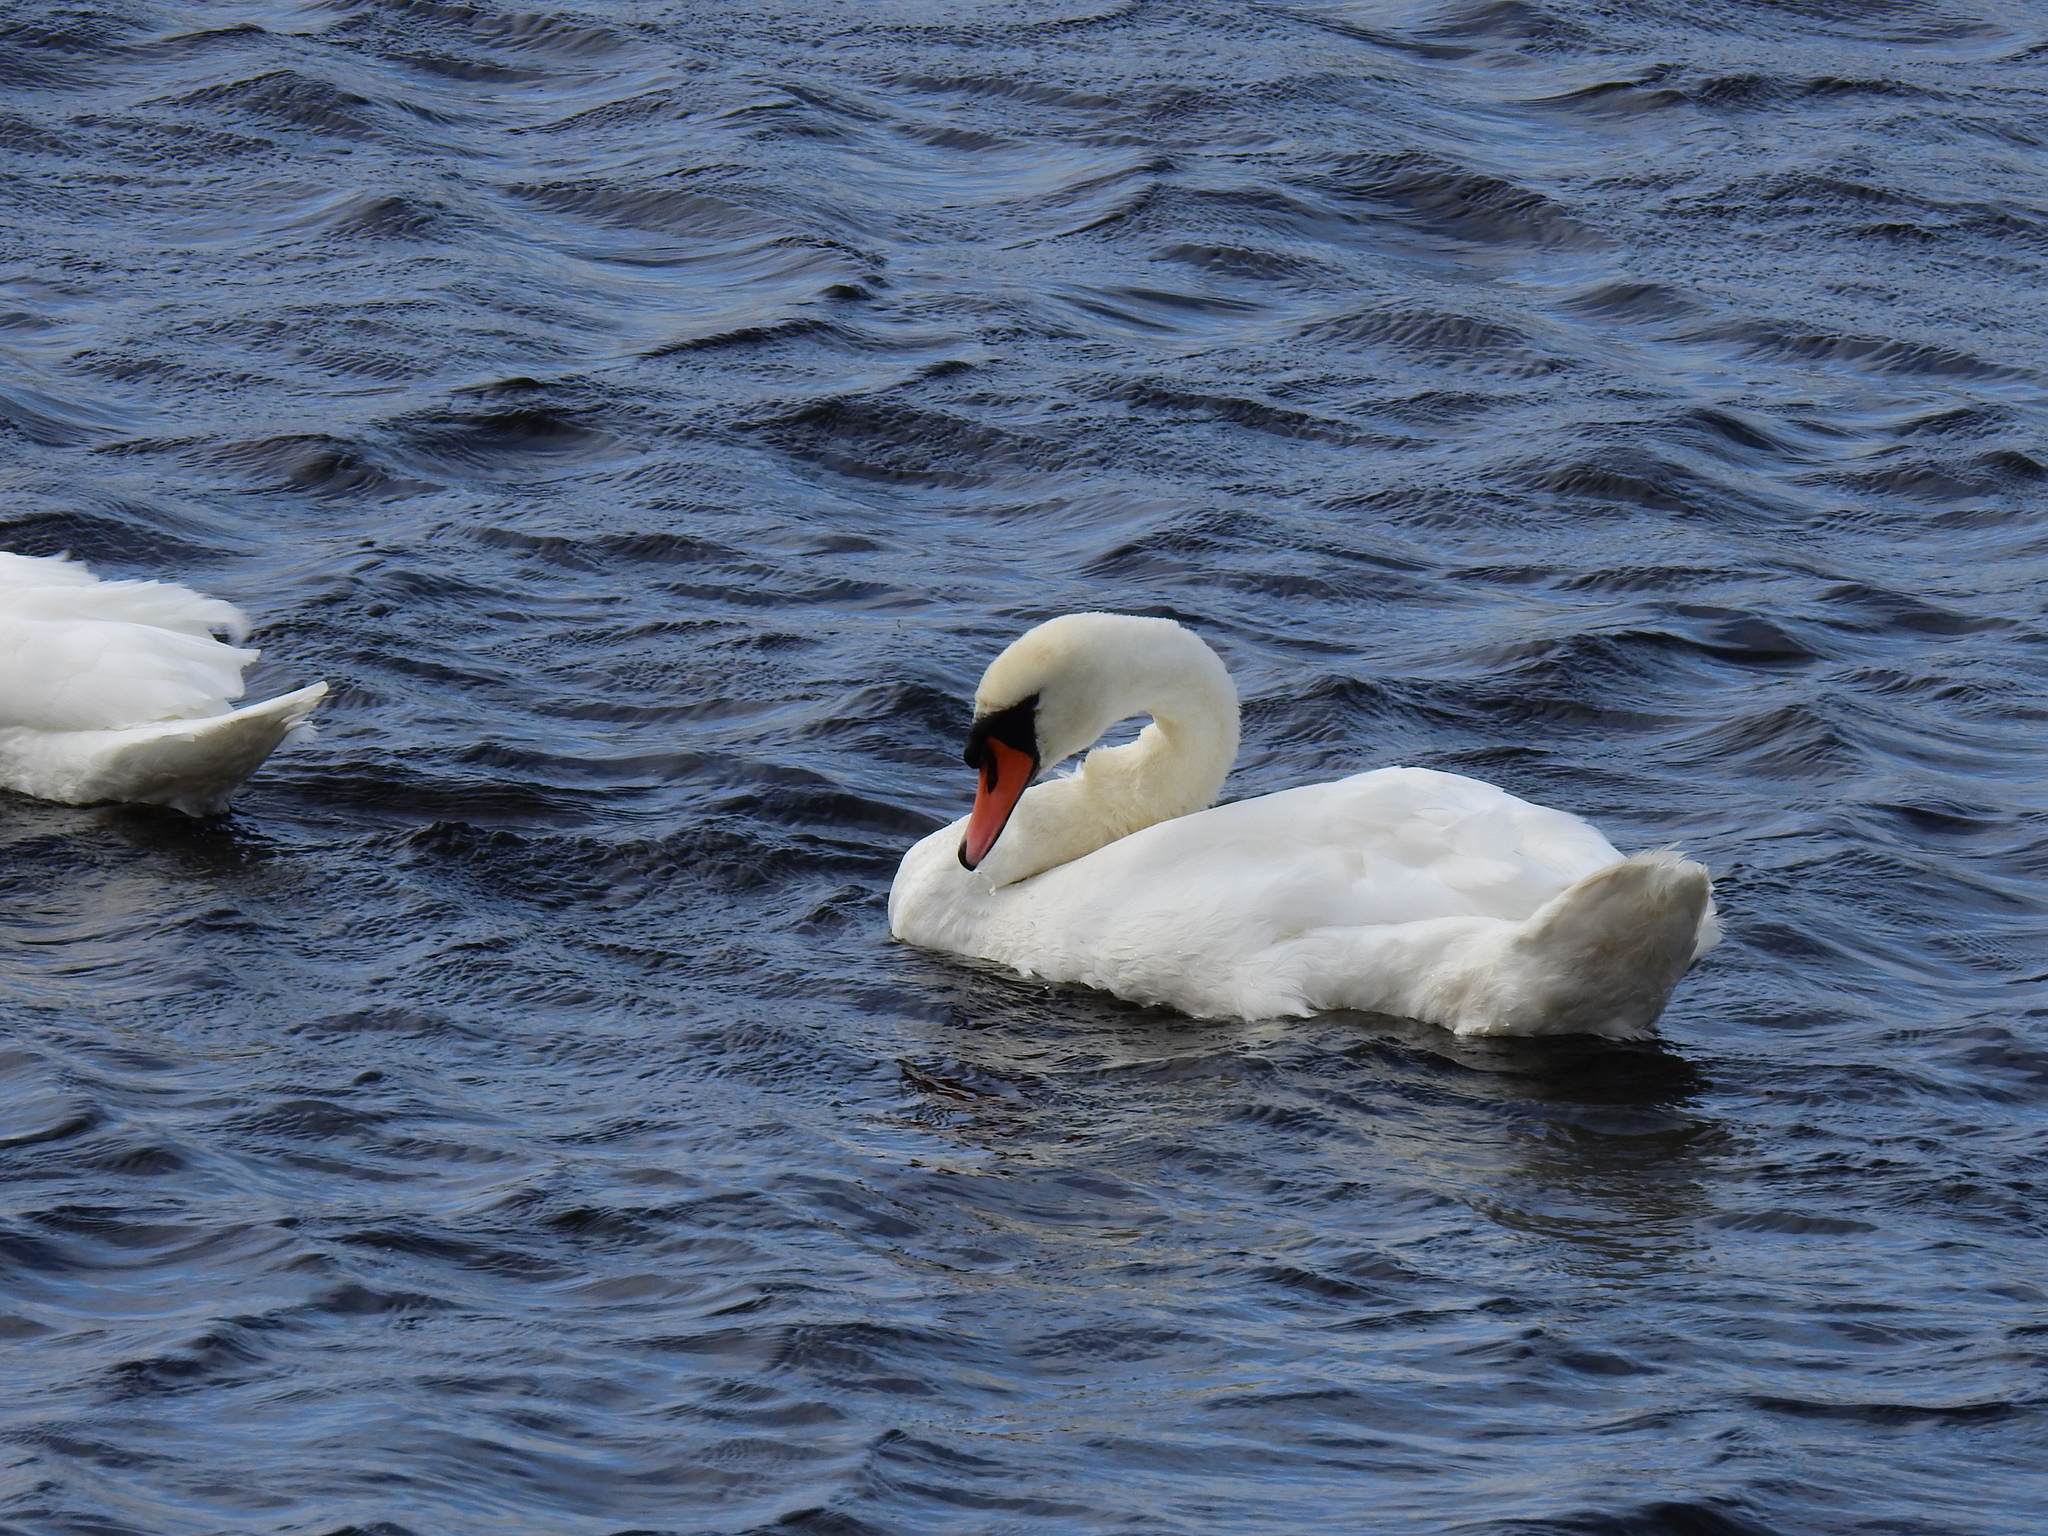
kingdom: Animalia
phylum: Chordata
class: Aves
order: Anseriformes
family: Anatidae
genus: Cygnus
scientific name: Cygnus olor
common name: Mute swan
